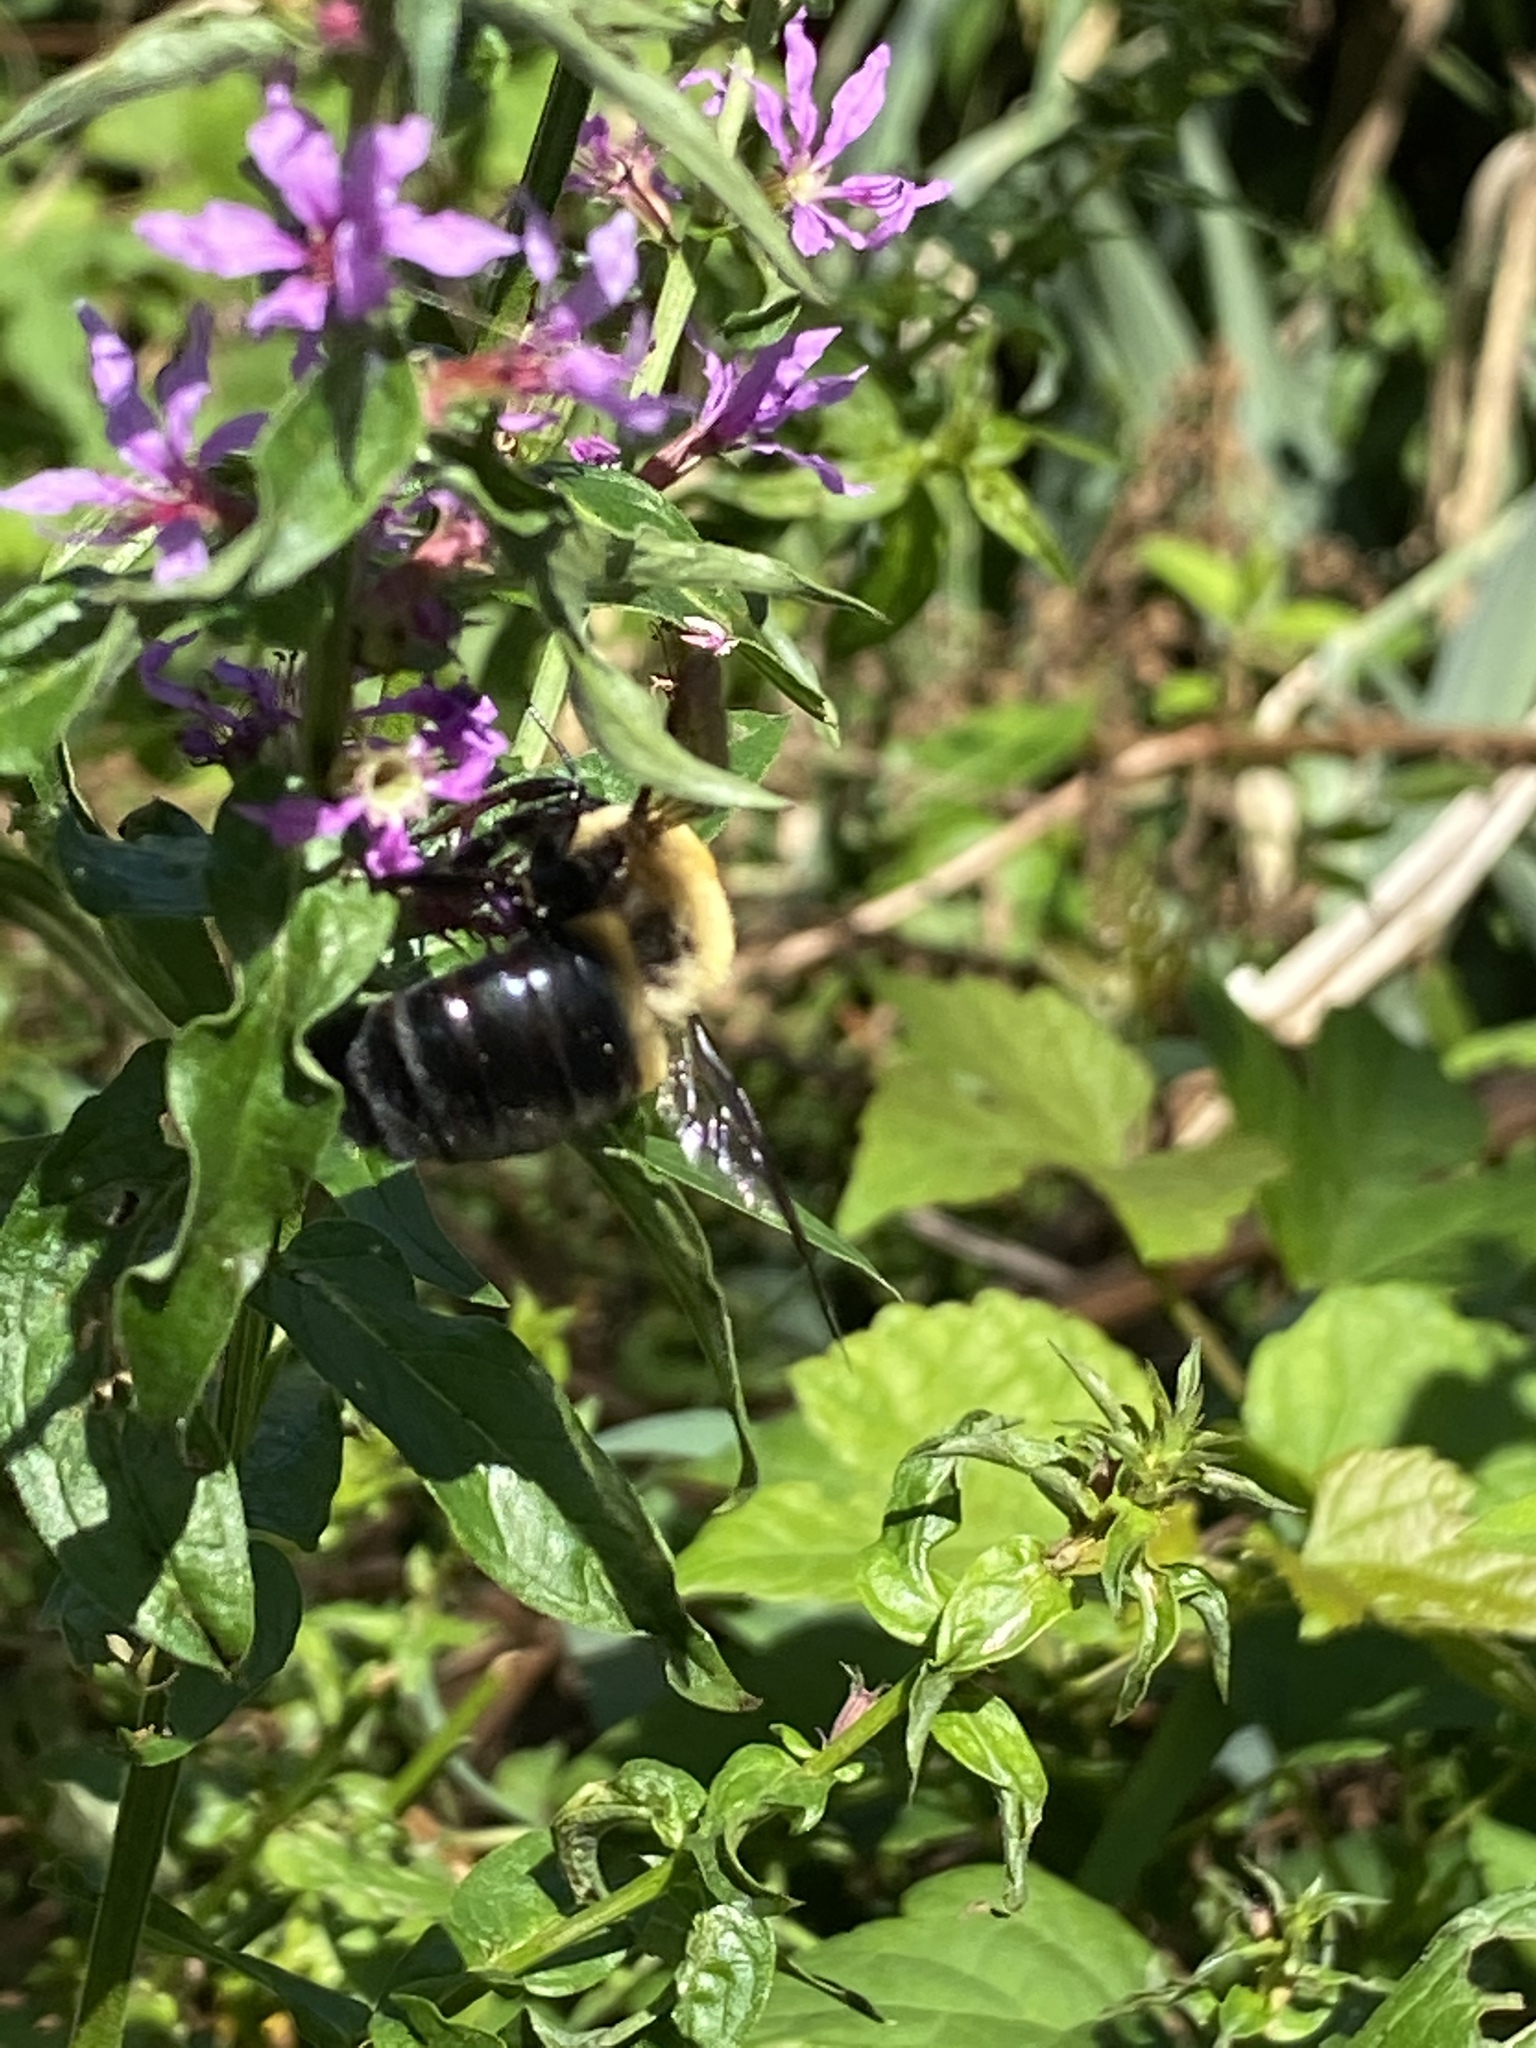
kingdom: Animalia
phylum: Arthropoda
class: Insecta
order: Hymenoptera
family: Apidae
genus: Xylocopa
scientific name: Xylocopa virginica
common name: Carpenter bee
